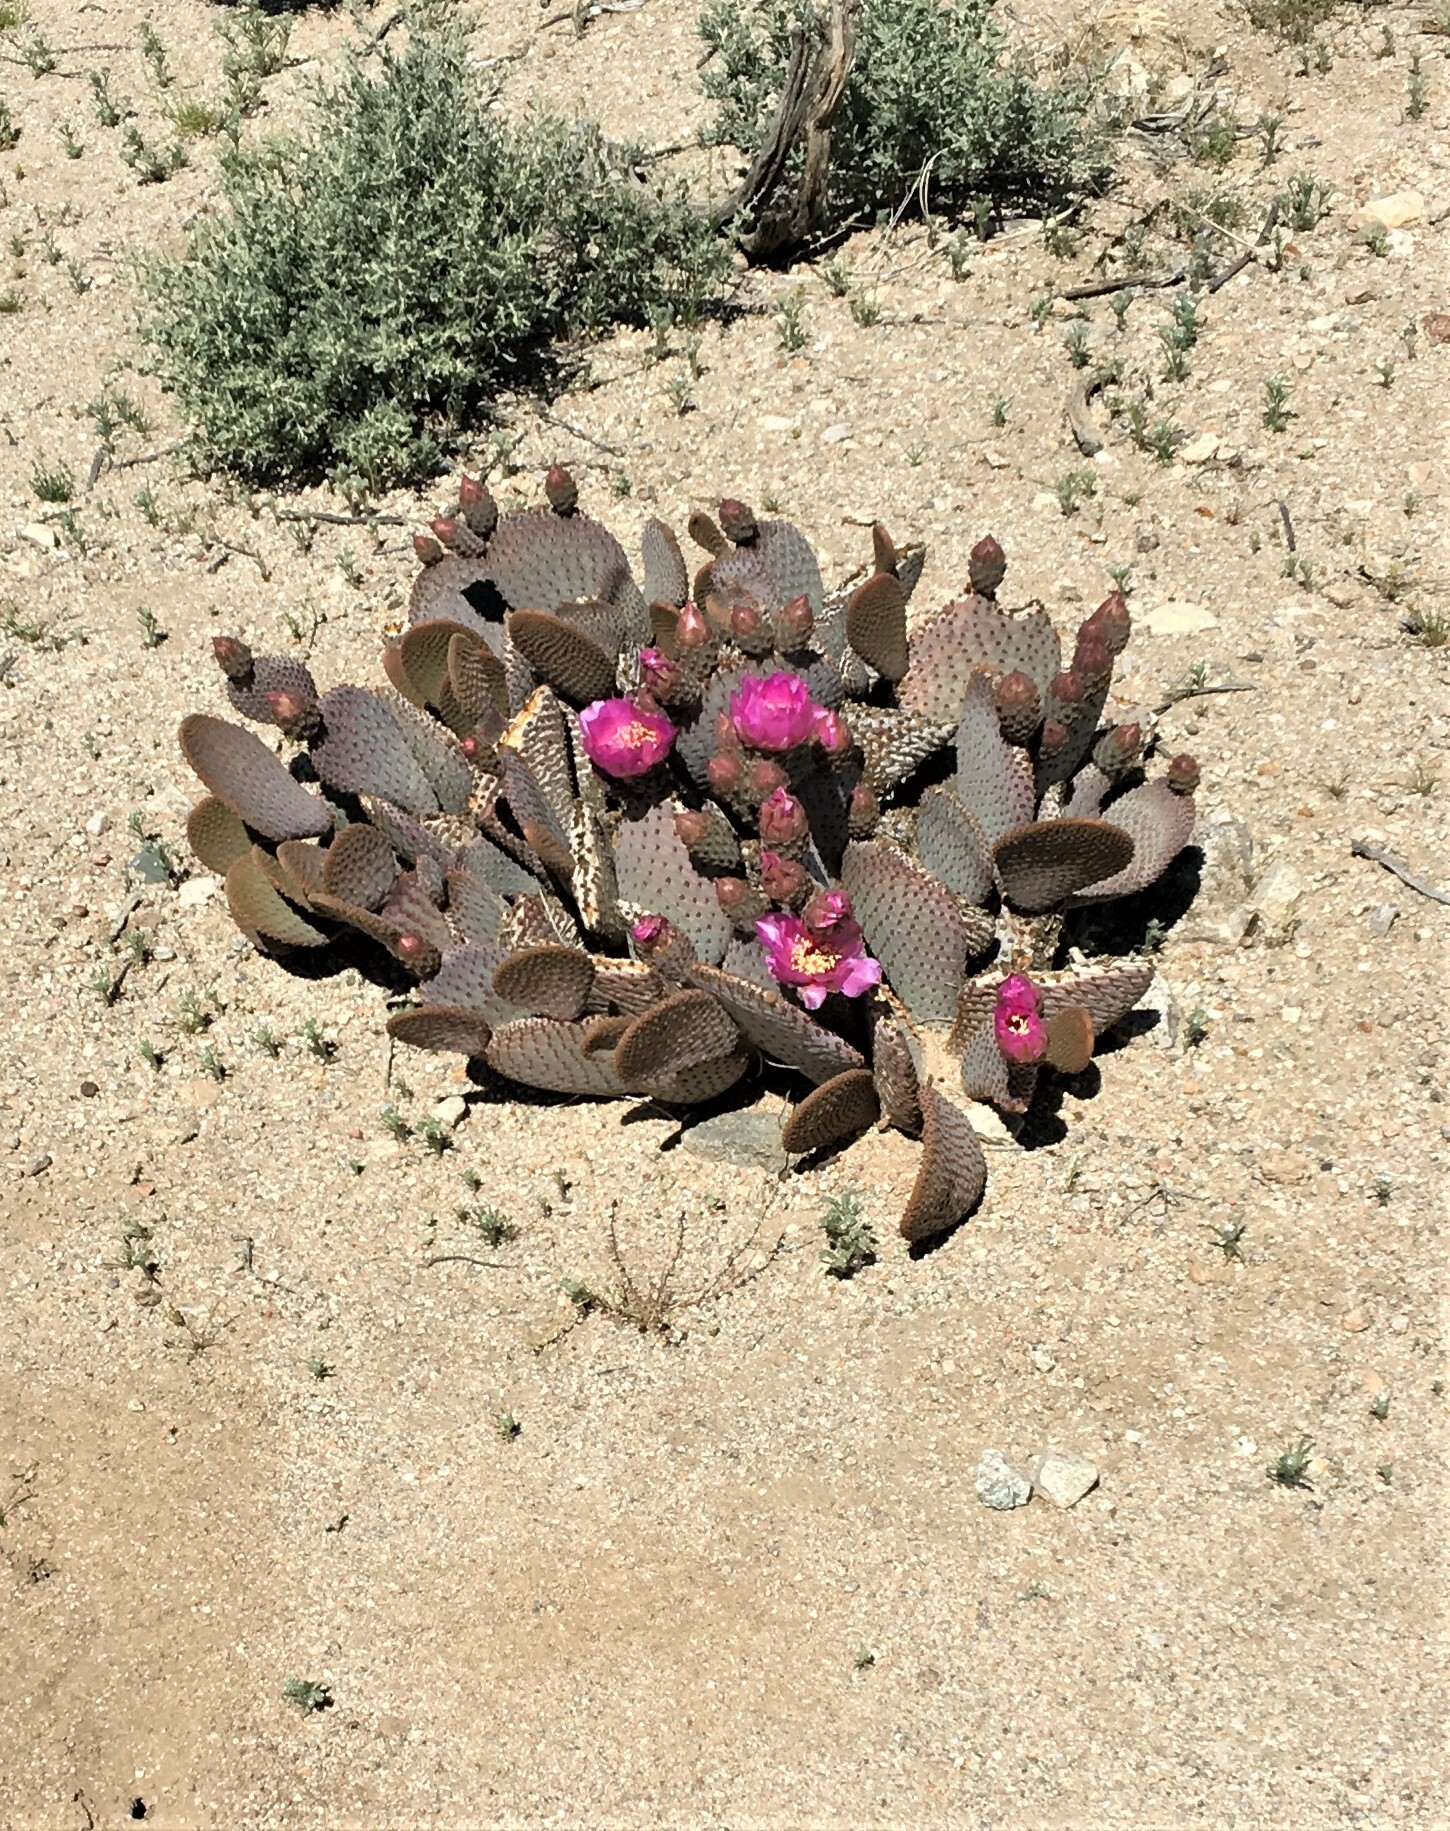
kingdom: Plantae
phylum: Tracheophyta
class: Magnoliopsida
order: Caryophyllales
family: Cactaceae
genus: Opuntia
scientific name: Opuntia basilaris
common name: Beavertail prickly-pear
